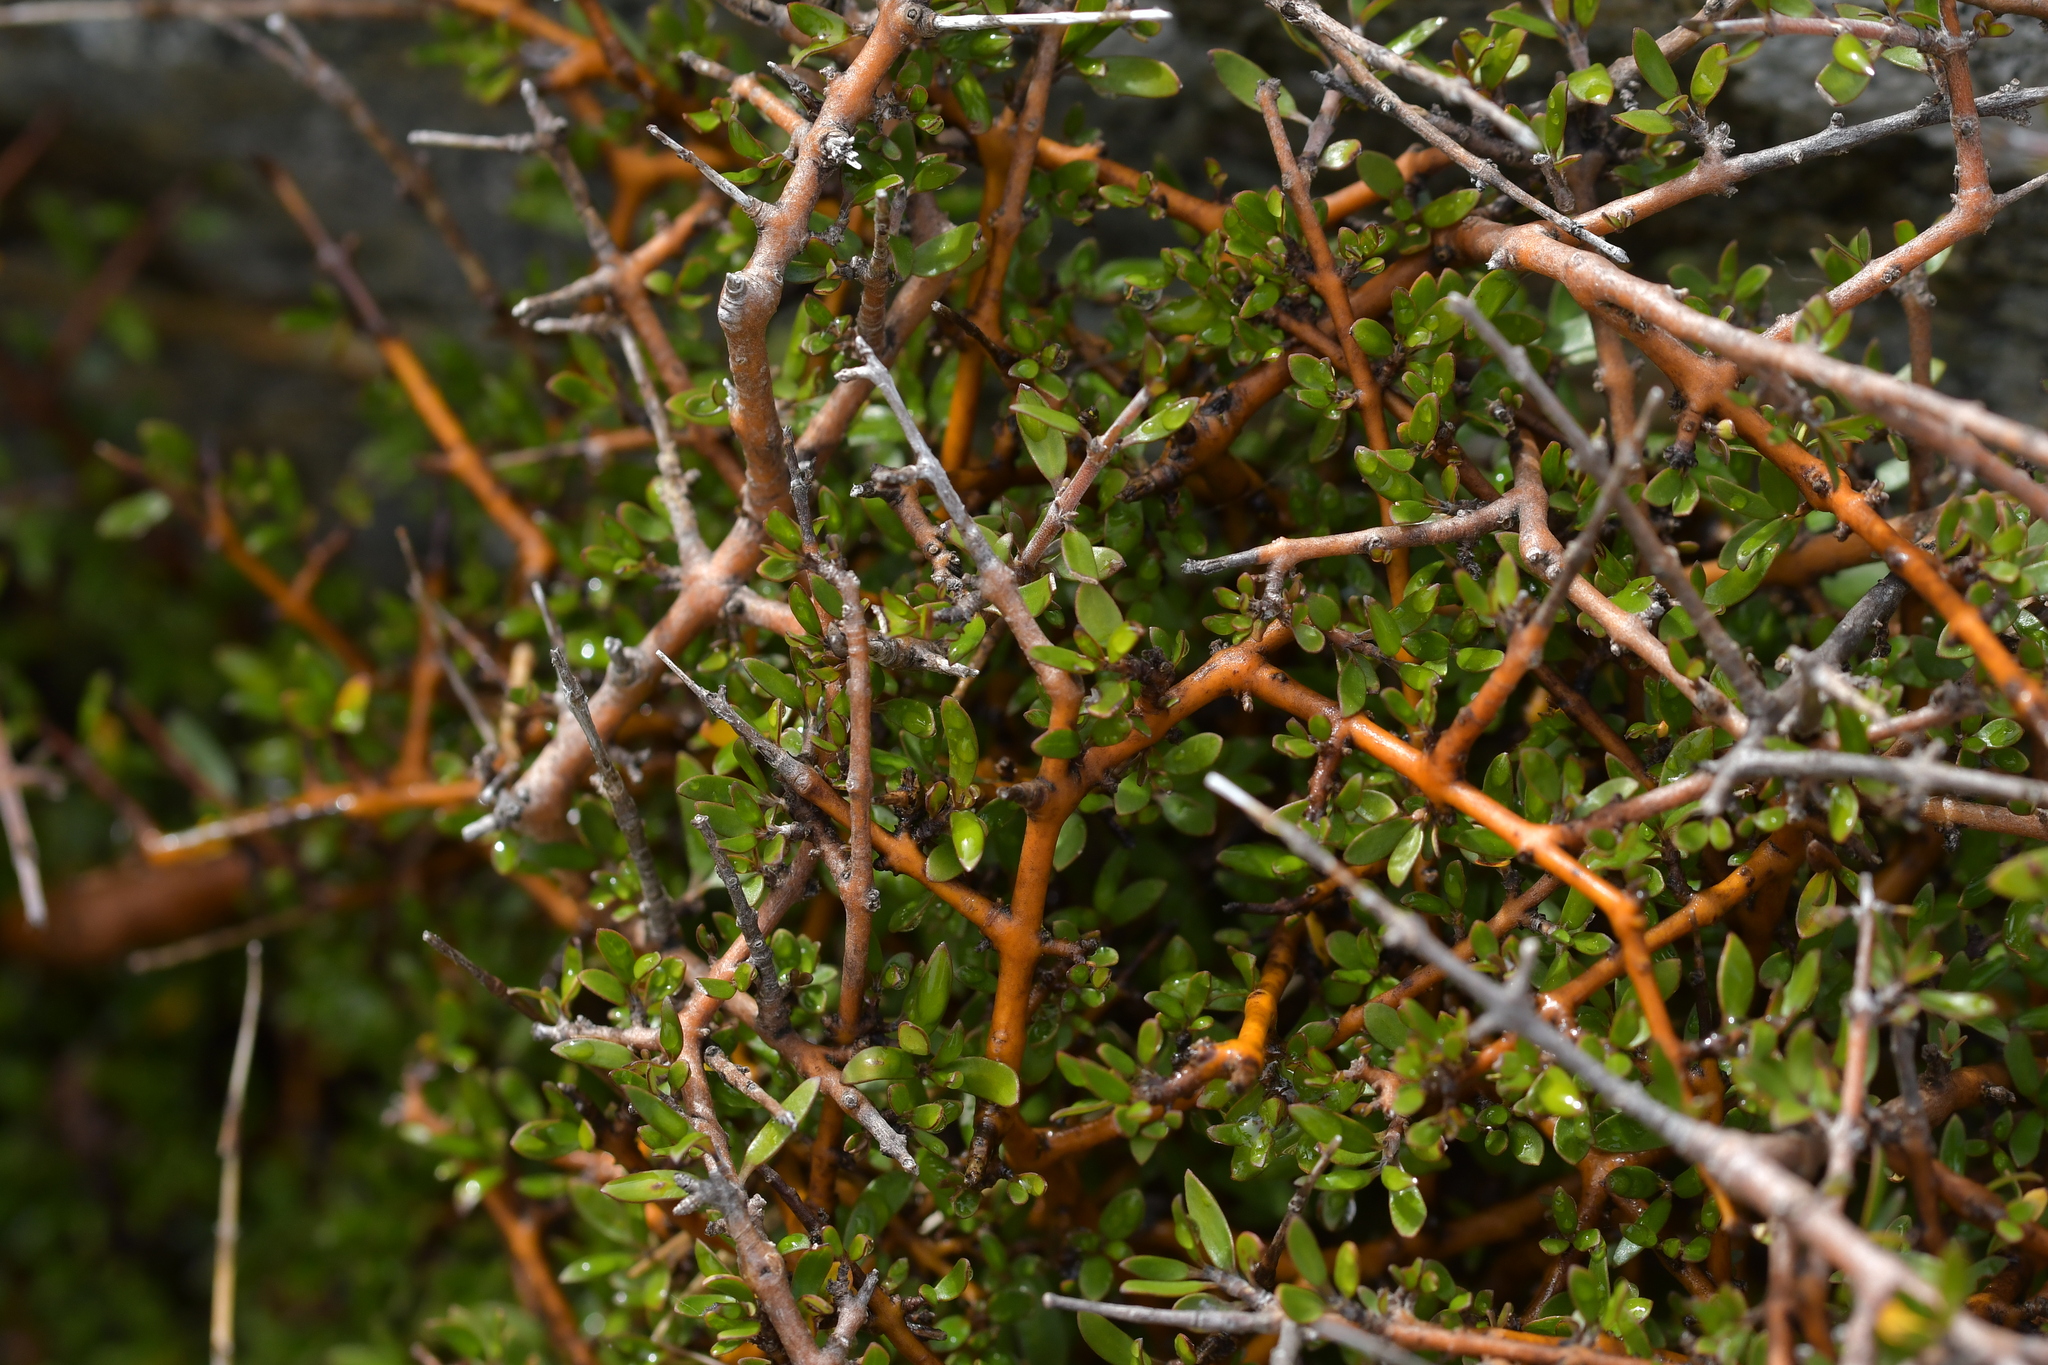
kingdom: Plantae
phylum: Tracheophyta
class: Magnoliopsida
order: Gentianales
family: Rubiaceae
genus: Coprosma
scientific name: Coprosma propinqua
